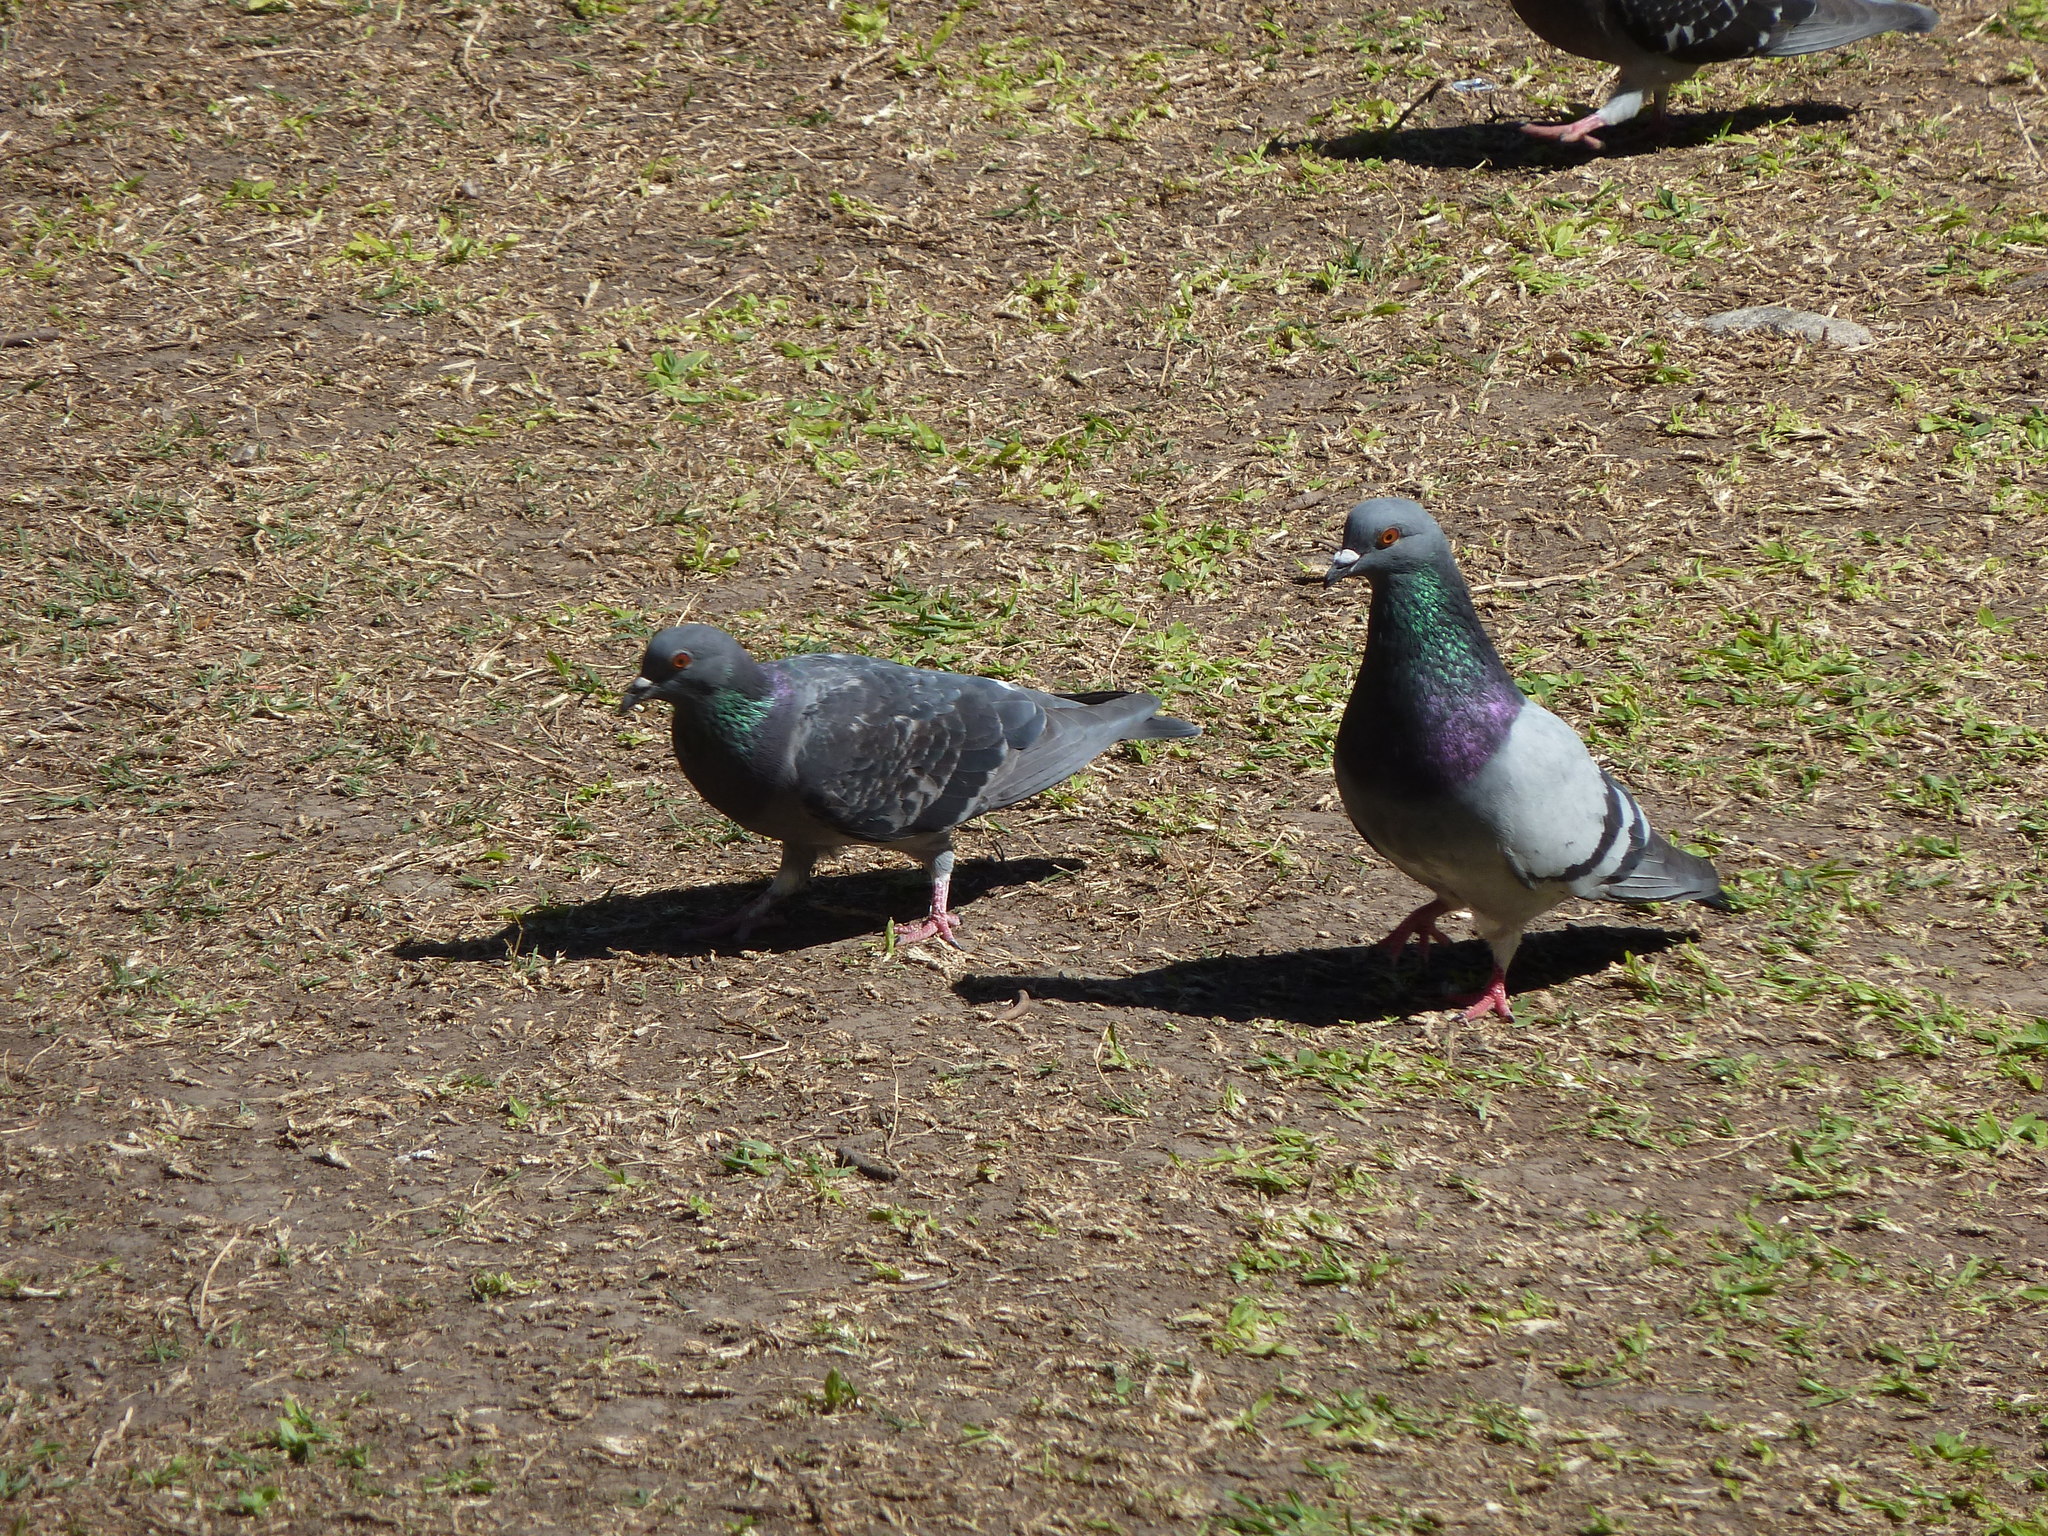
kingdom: Animalia
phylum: Chordata
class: Aves
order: Columbiformes
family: Columbidae
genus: Columba
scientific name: Columba livia
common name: Rock pigeon
